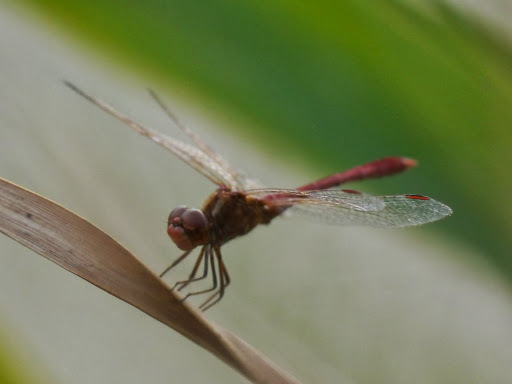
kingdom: Animalia
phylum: Arthropoda
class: Insecta
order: Odonata
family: Libellulidae
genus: Sympetrum
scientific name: Sympetrum meridionale
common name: Southern darter
